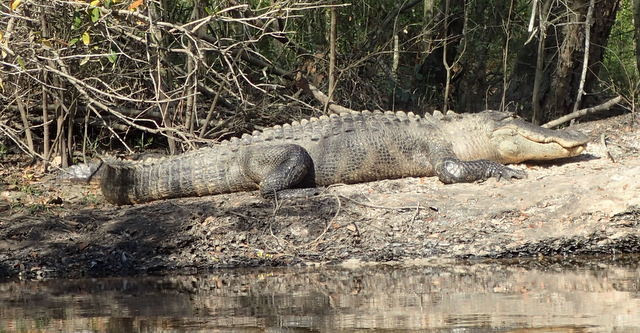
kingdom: Animalia
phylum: Chordata
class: Crocodylia
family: Alligatoridae
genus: Alligator
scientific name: Alligator mississippiensis
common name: American alligator
